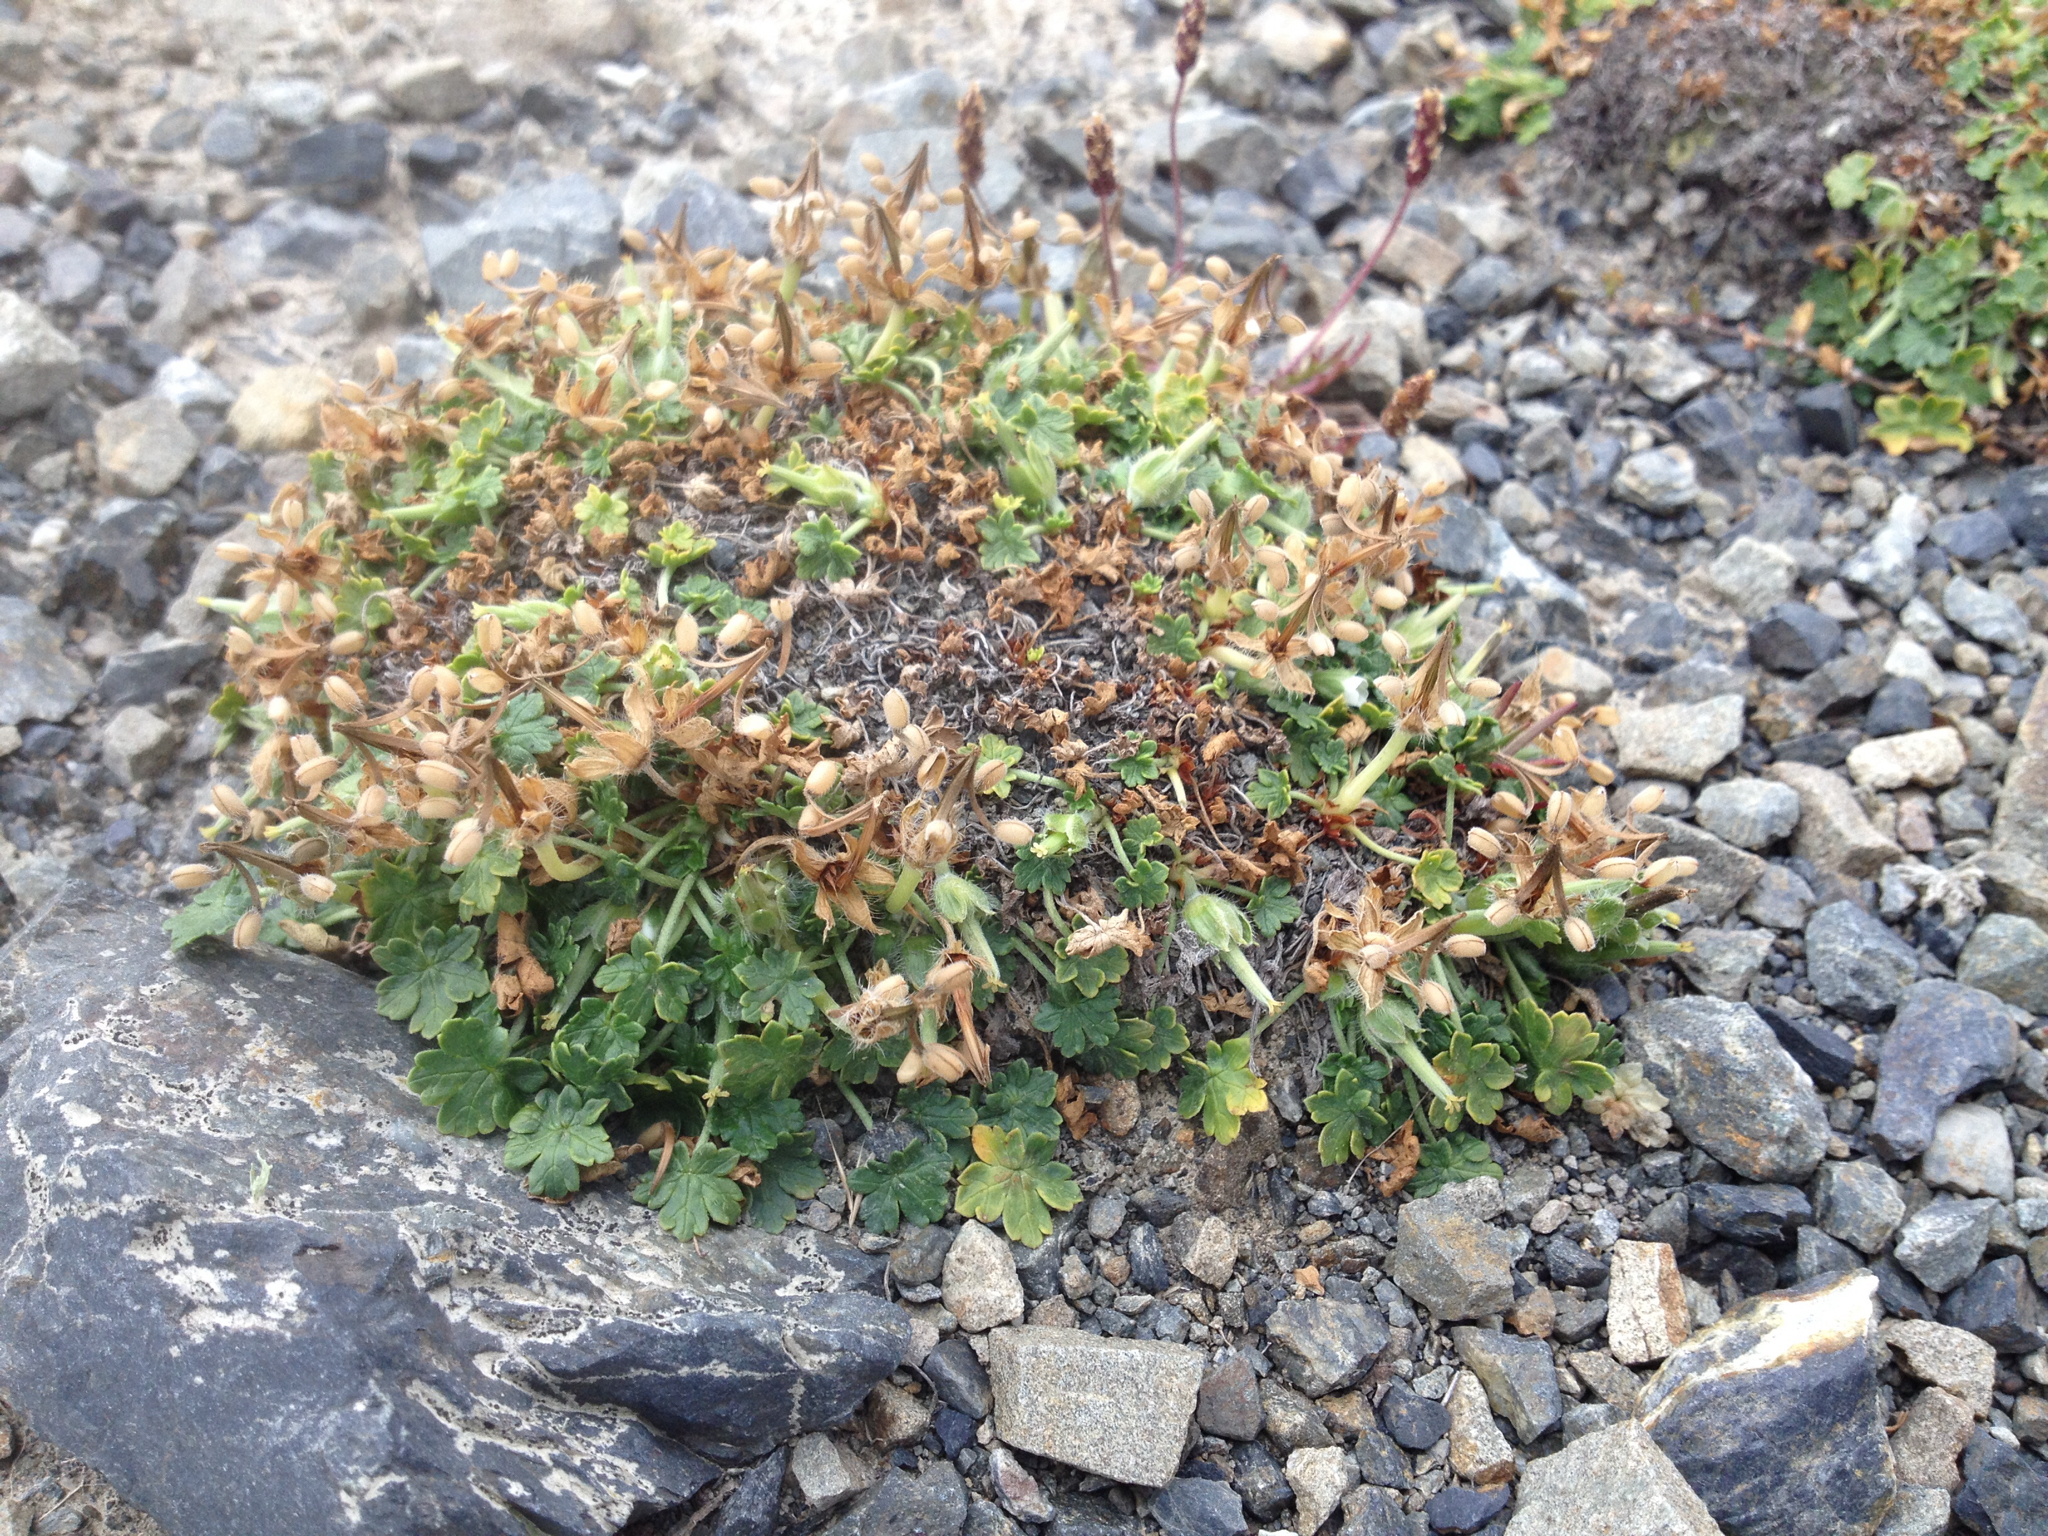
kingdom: Plantae
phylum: Tracheophyta
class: Magnoliopsida
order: Geraniales
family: Geraniaceae
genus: Geranium
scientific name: Geranium brevicaule
